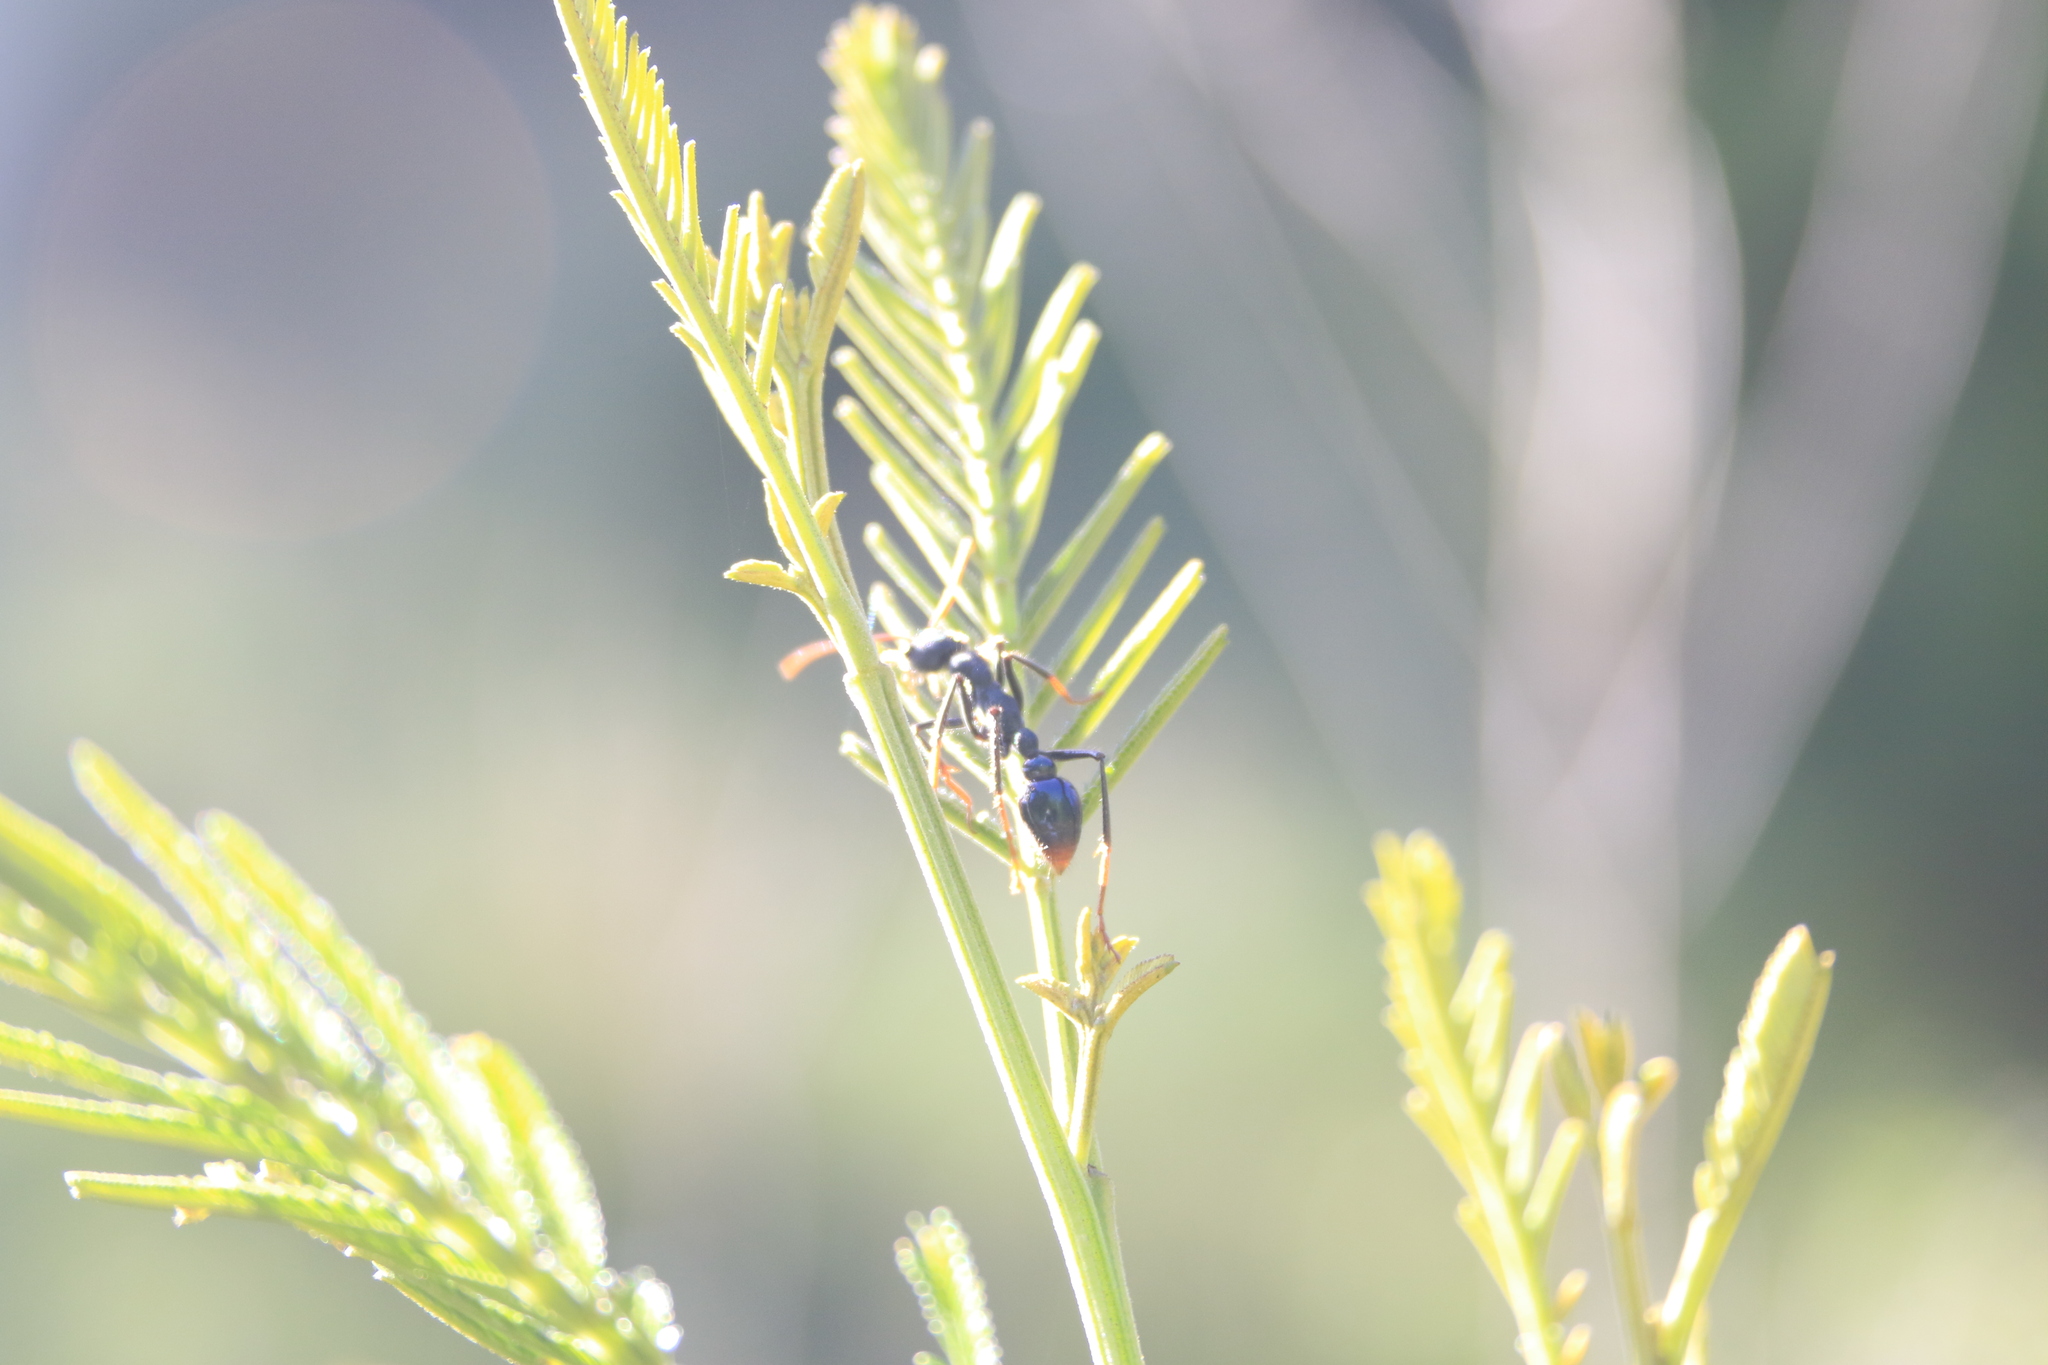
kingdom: Animalia
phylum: Arthropoda
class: Insecta
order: Hymenoptera
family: Formicidae
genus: Myrmecia
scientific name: Myrmecia tarsata
